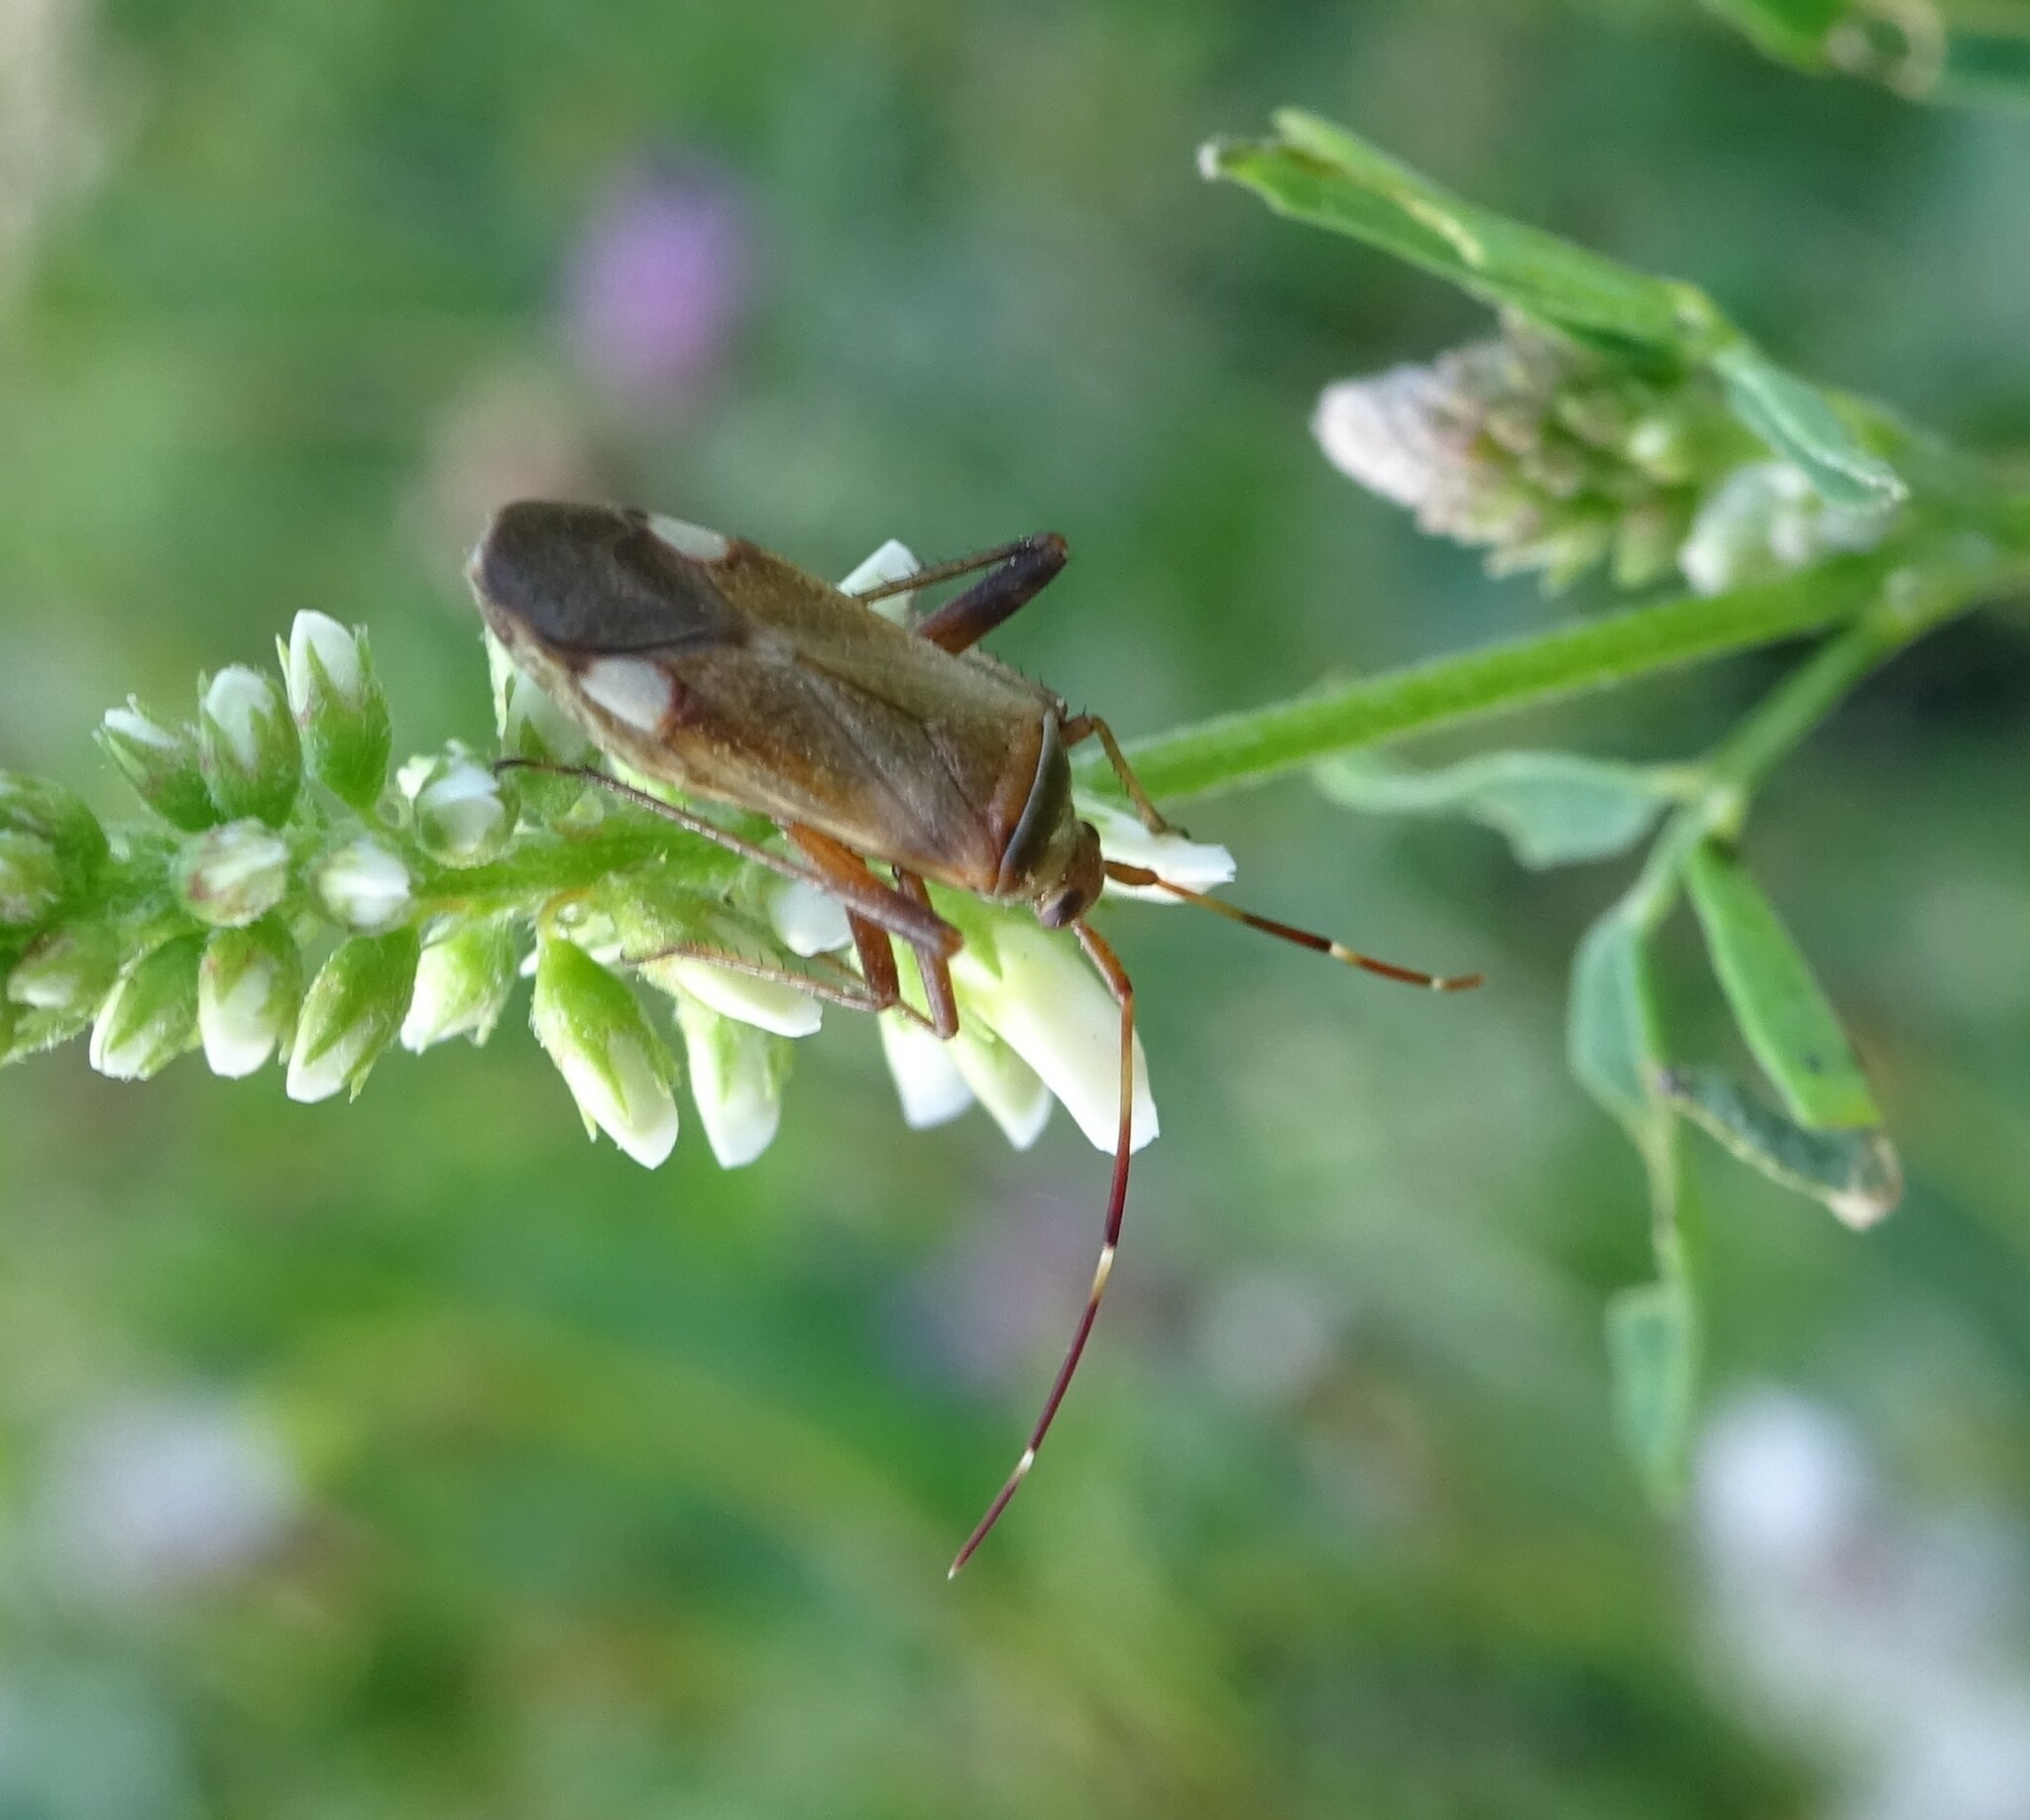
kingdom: Animalia
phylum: Arthropoda
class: Insecta
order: Hemiptera
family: Miridae
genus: Adelphocoris
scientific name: Adelphocoris vandalicus
